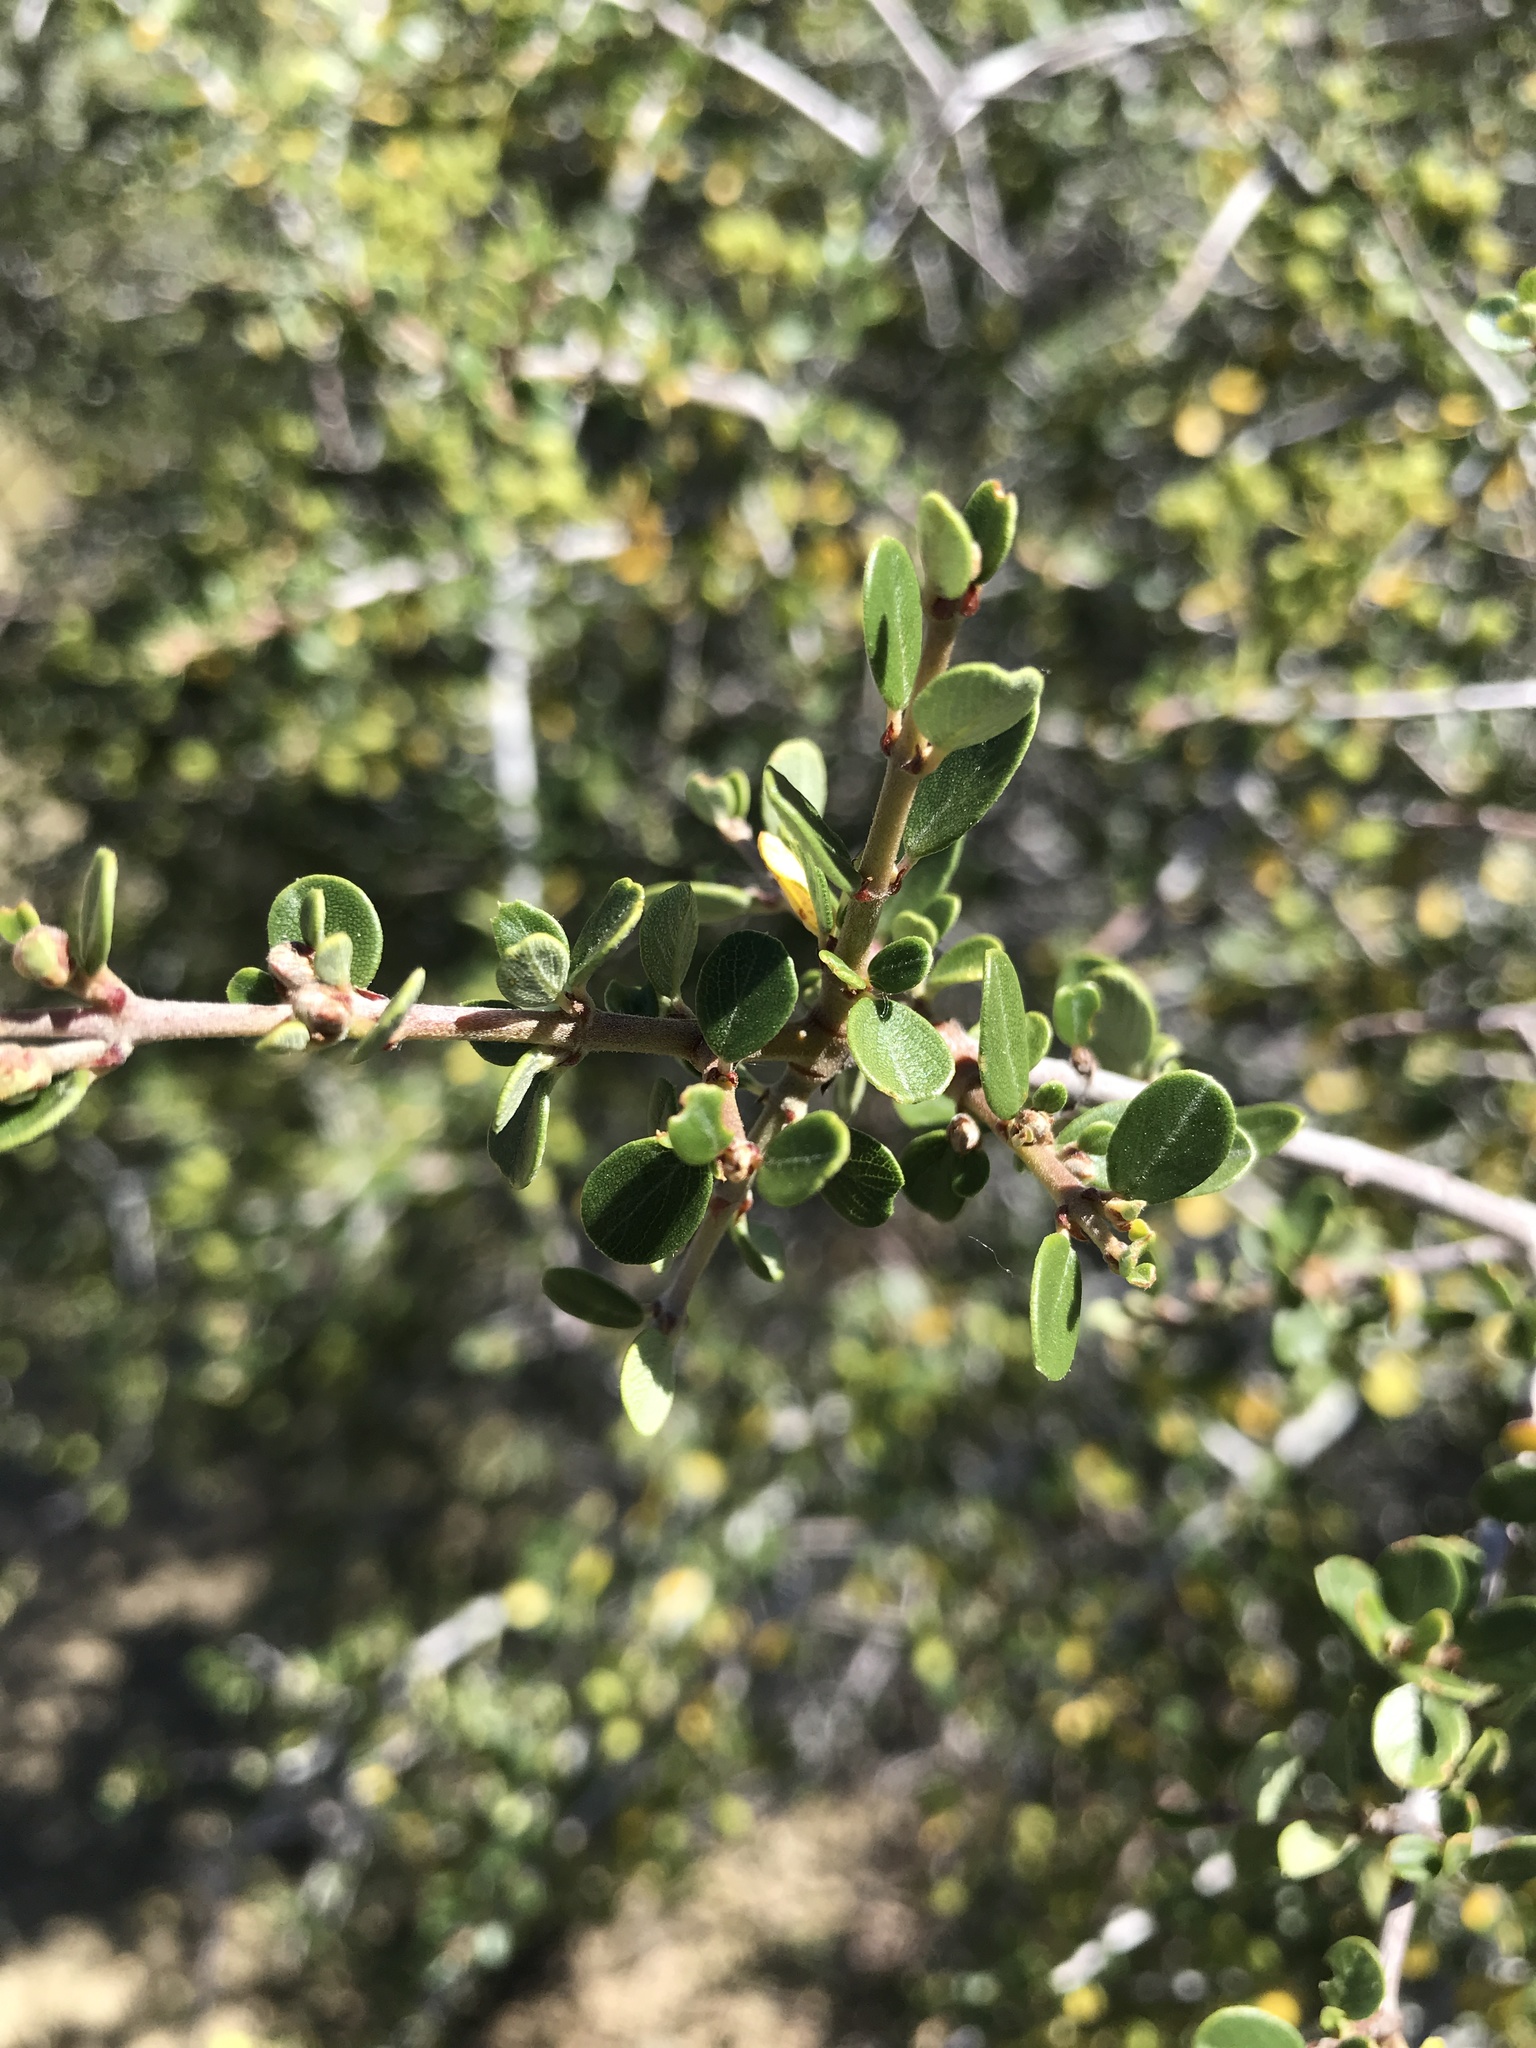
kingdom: Plantae
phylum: Tracheophyta
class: Magnoliopsida
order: Rosales
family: Rhamnaceae
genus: Ceanothus
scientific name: Ceanothus cuneatus
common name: Cuneate ceanothus
